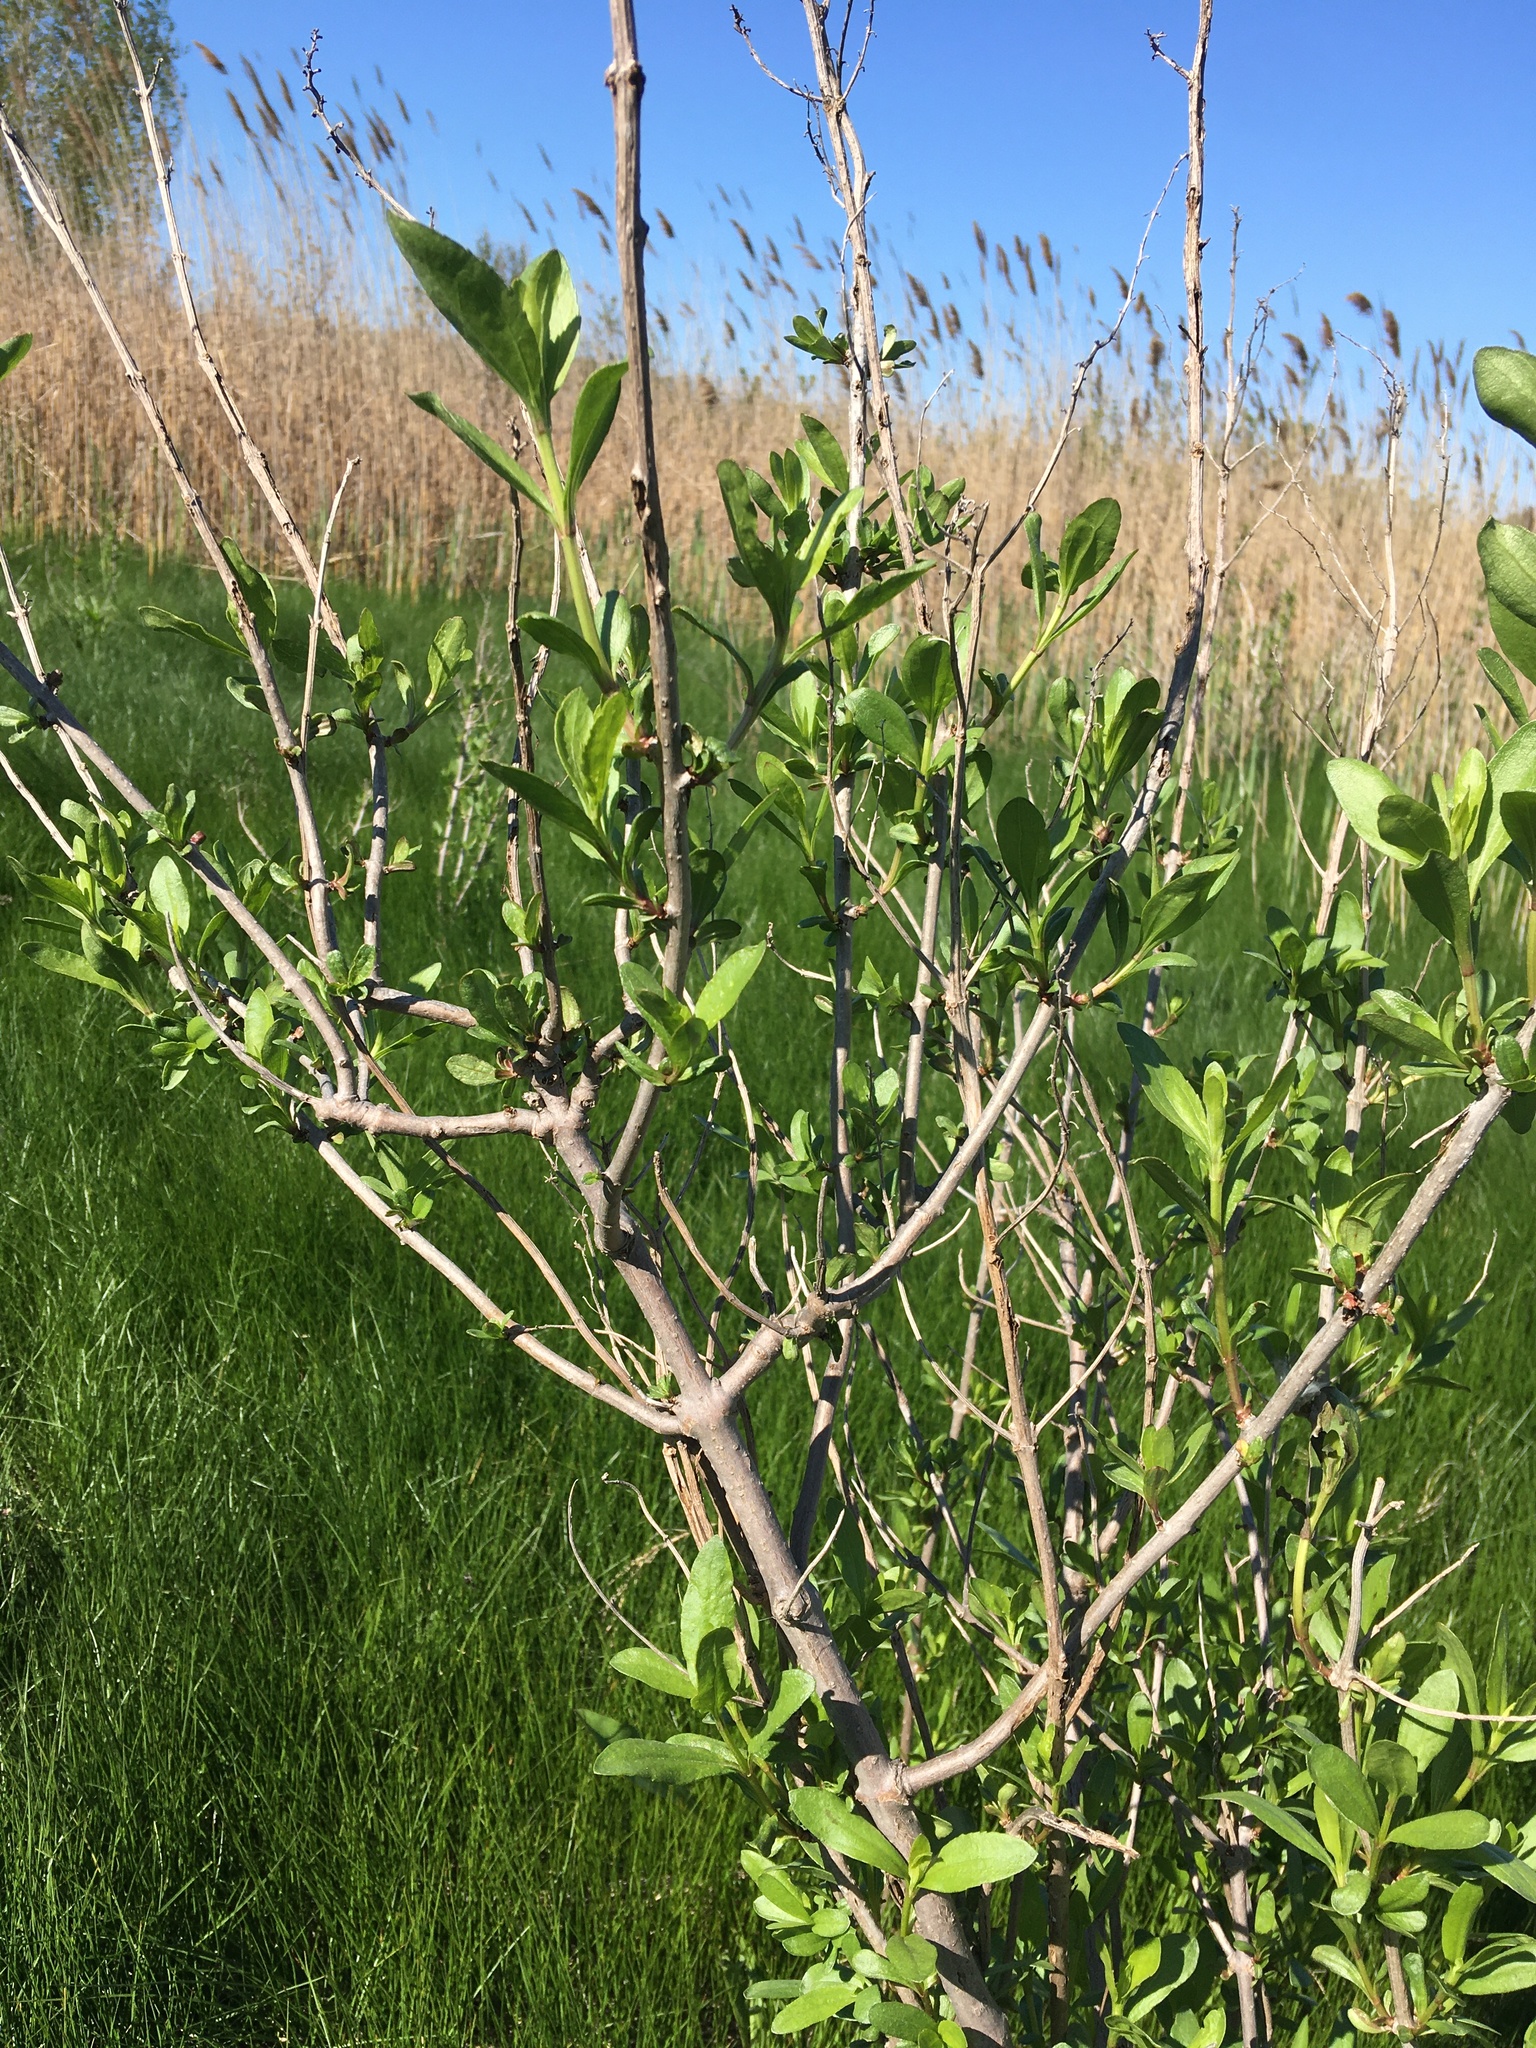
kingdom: Plantae
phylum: Tracheophyta
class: Magnoliopsida
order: Asterales
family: Asteraceae
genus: Iva
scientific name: Iva frutescens
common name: Big-leaved marsh-elder
